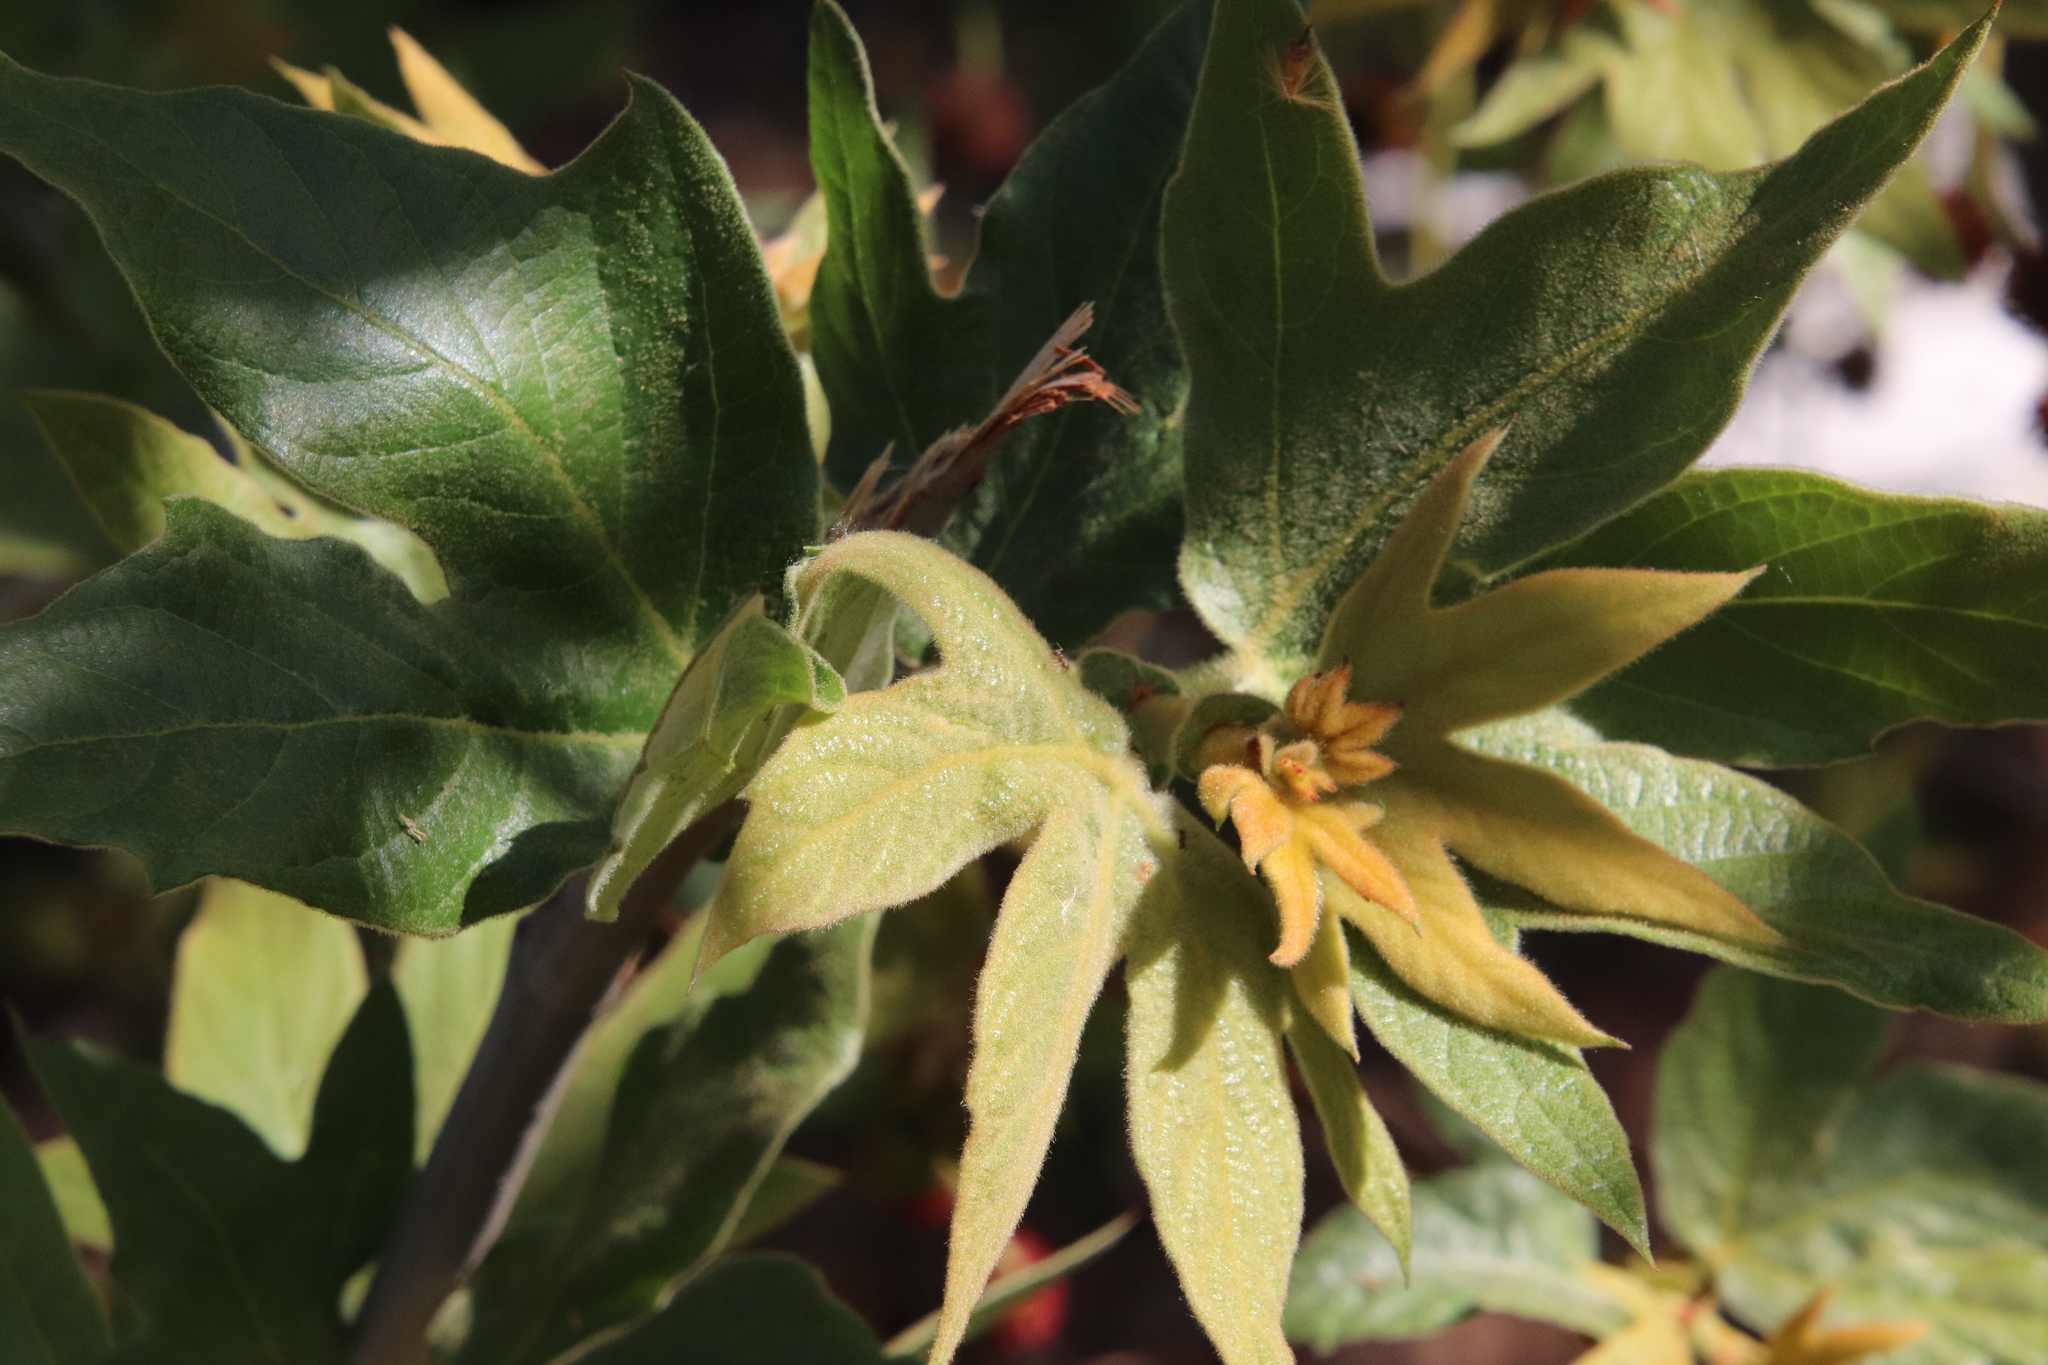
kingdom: Plantae
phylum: Tracheophyta
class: Magnoliopsida
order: Proteales
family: Platanaceae
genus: Platanus
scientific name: Platanus racemosa
